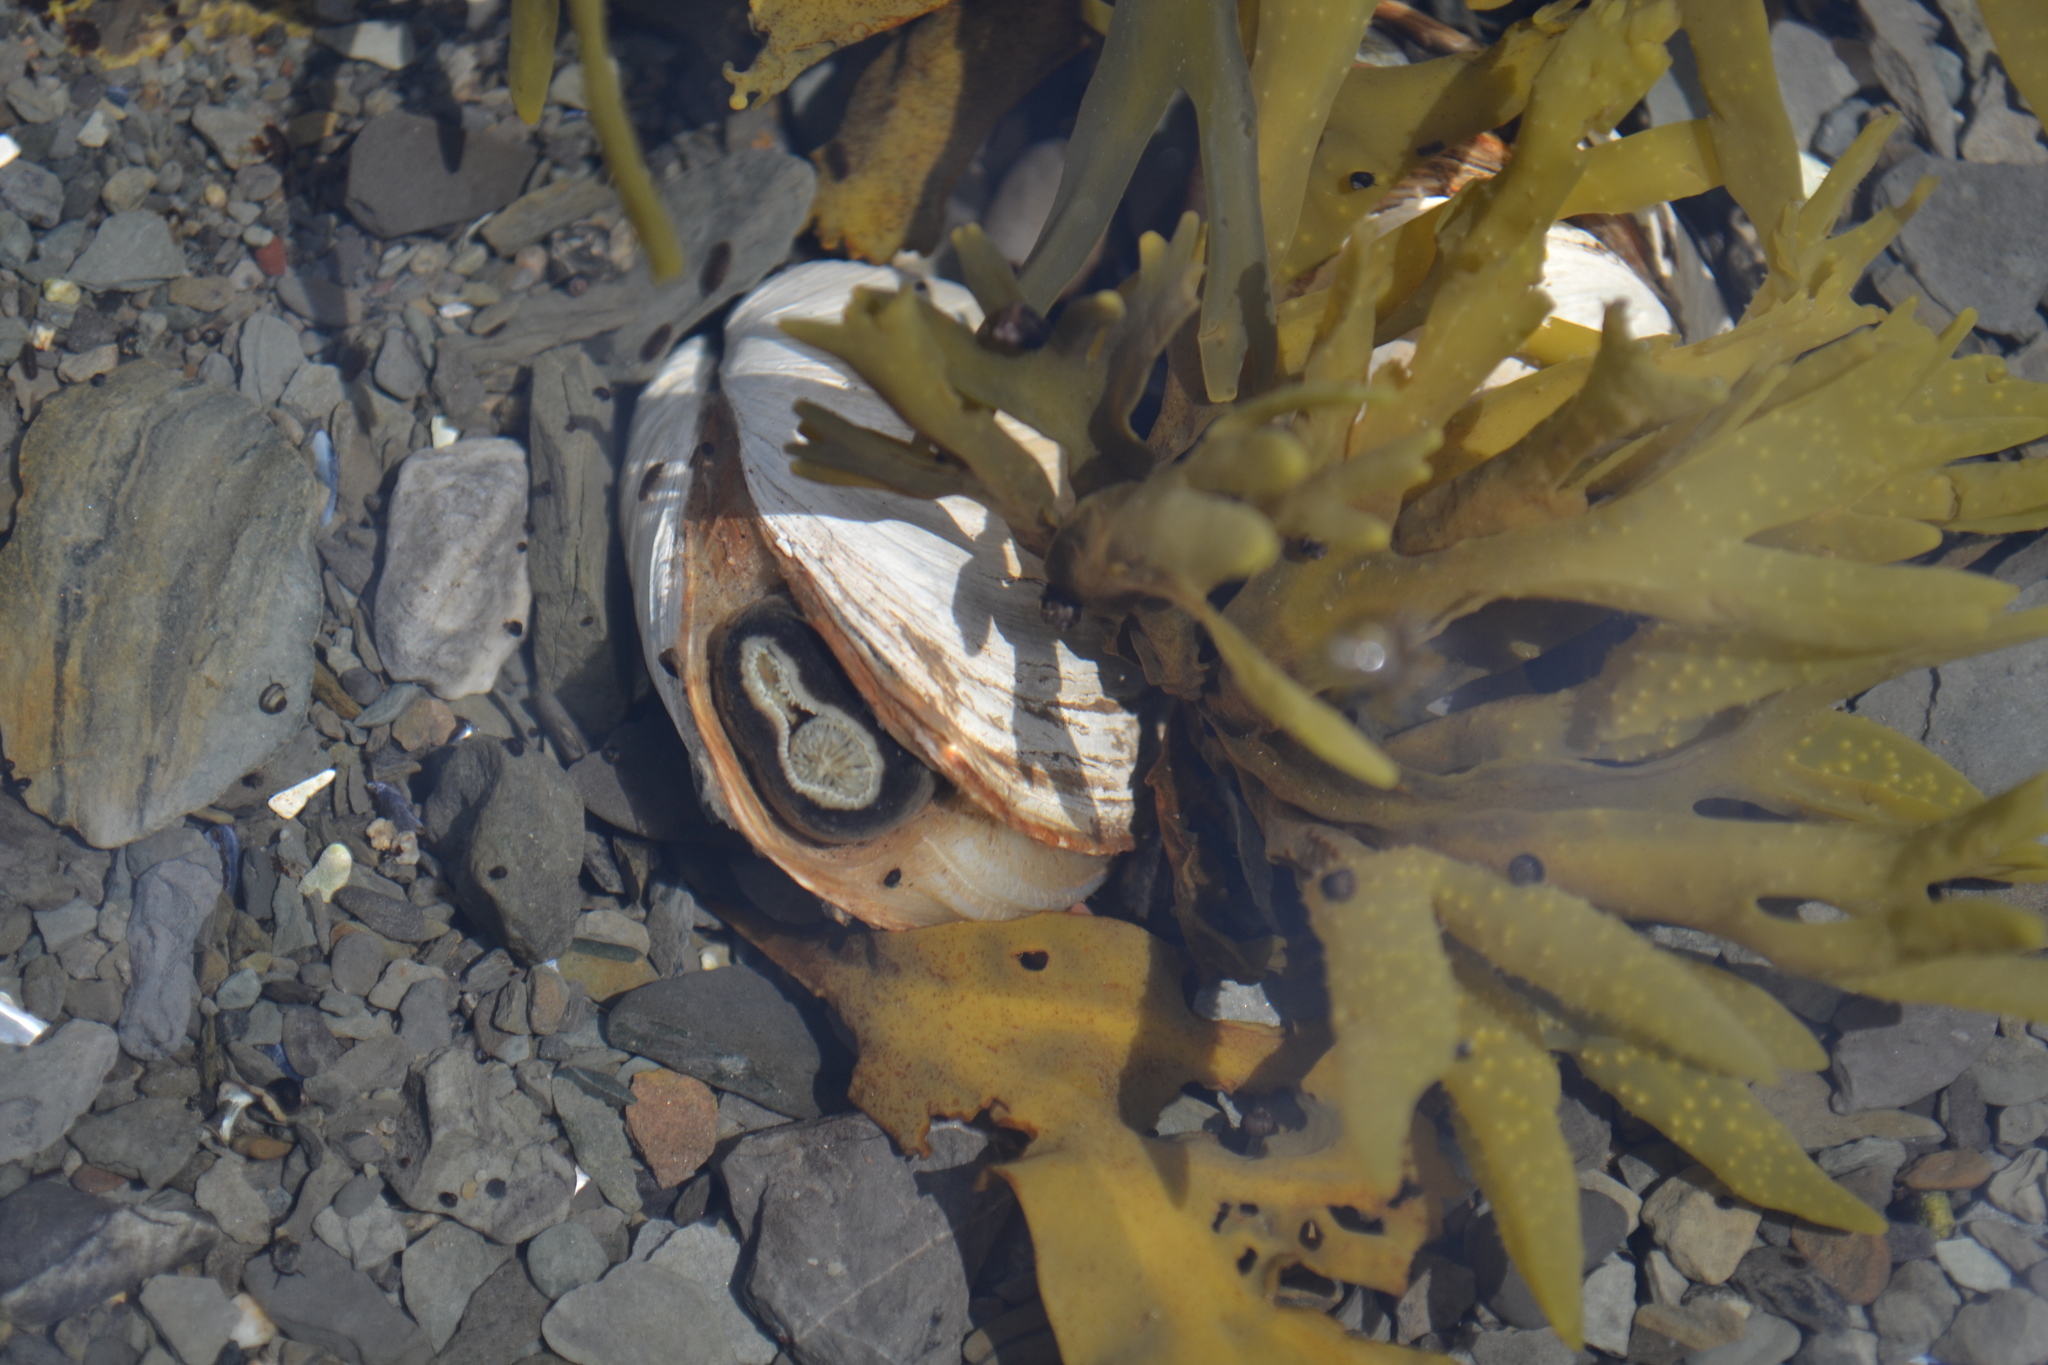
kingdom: Animalia
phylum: Mollusca
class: Bivalvia
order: Myida
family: Myidae
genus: Mya
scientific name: Mya arenaria
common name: Soft-shelled clam
